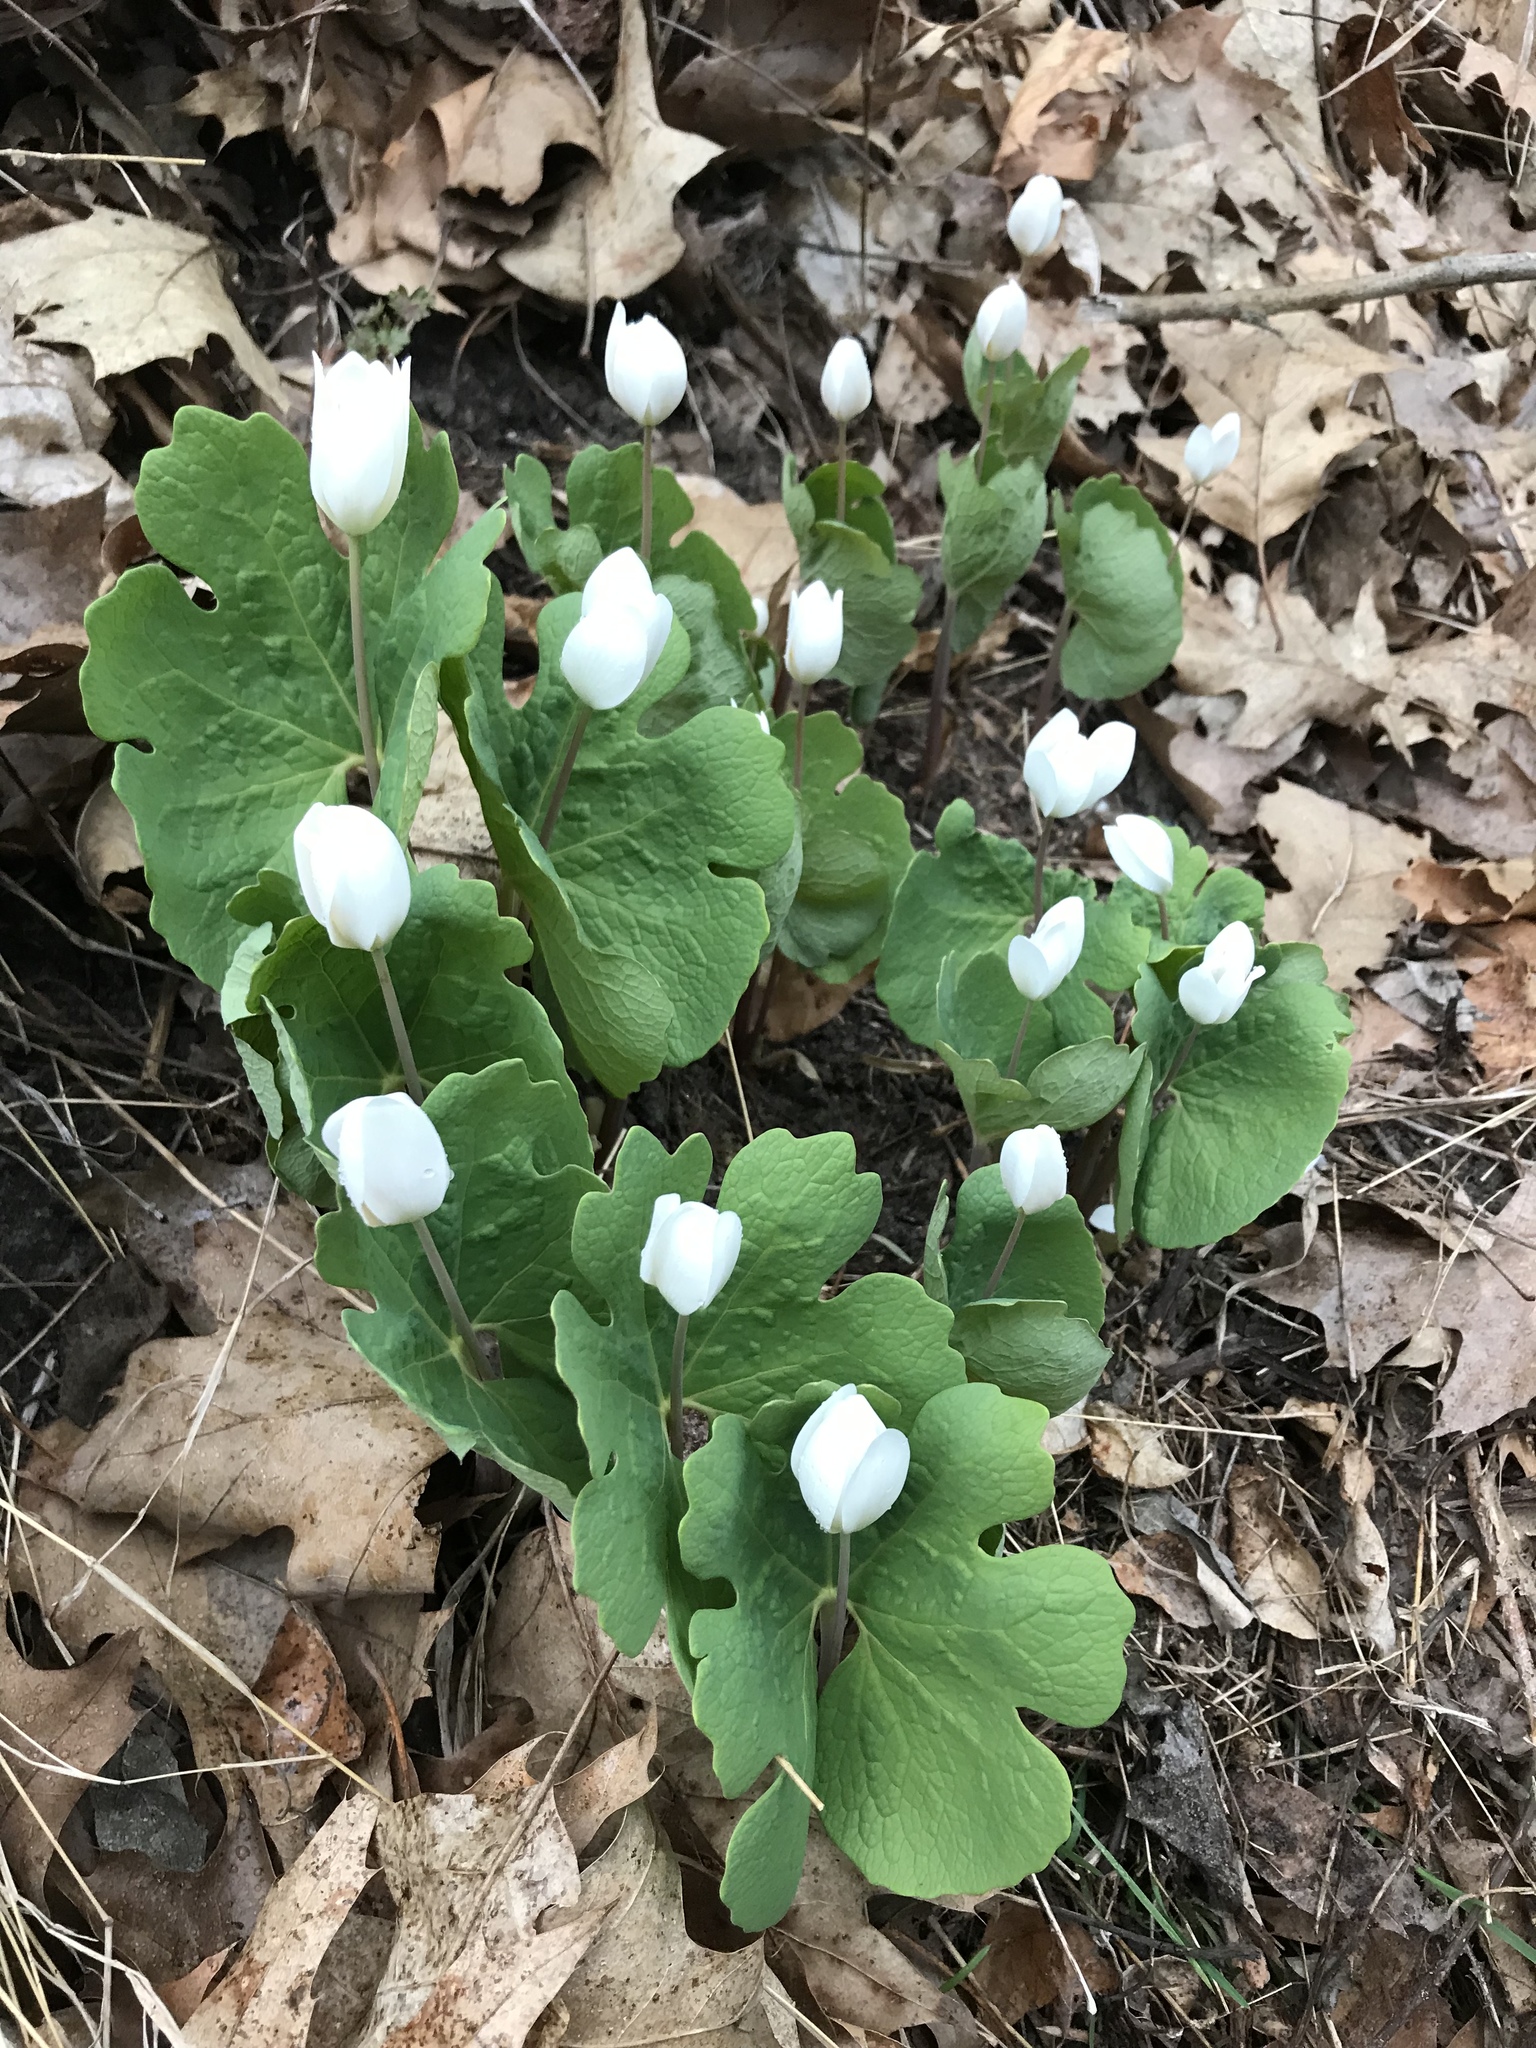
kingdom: Plantae
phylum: Tracheophyta
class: Magnoliopsida
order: Ranunculales
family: Papaveraceae
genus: Sanguinaria
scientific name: Sanguinaria canadensis
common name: Bloodroot
